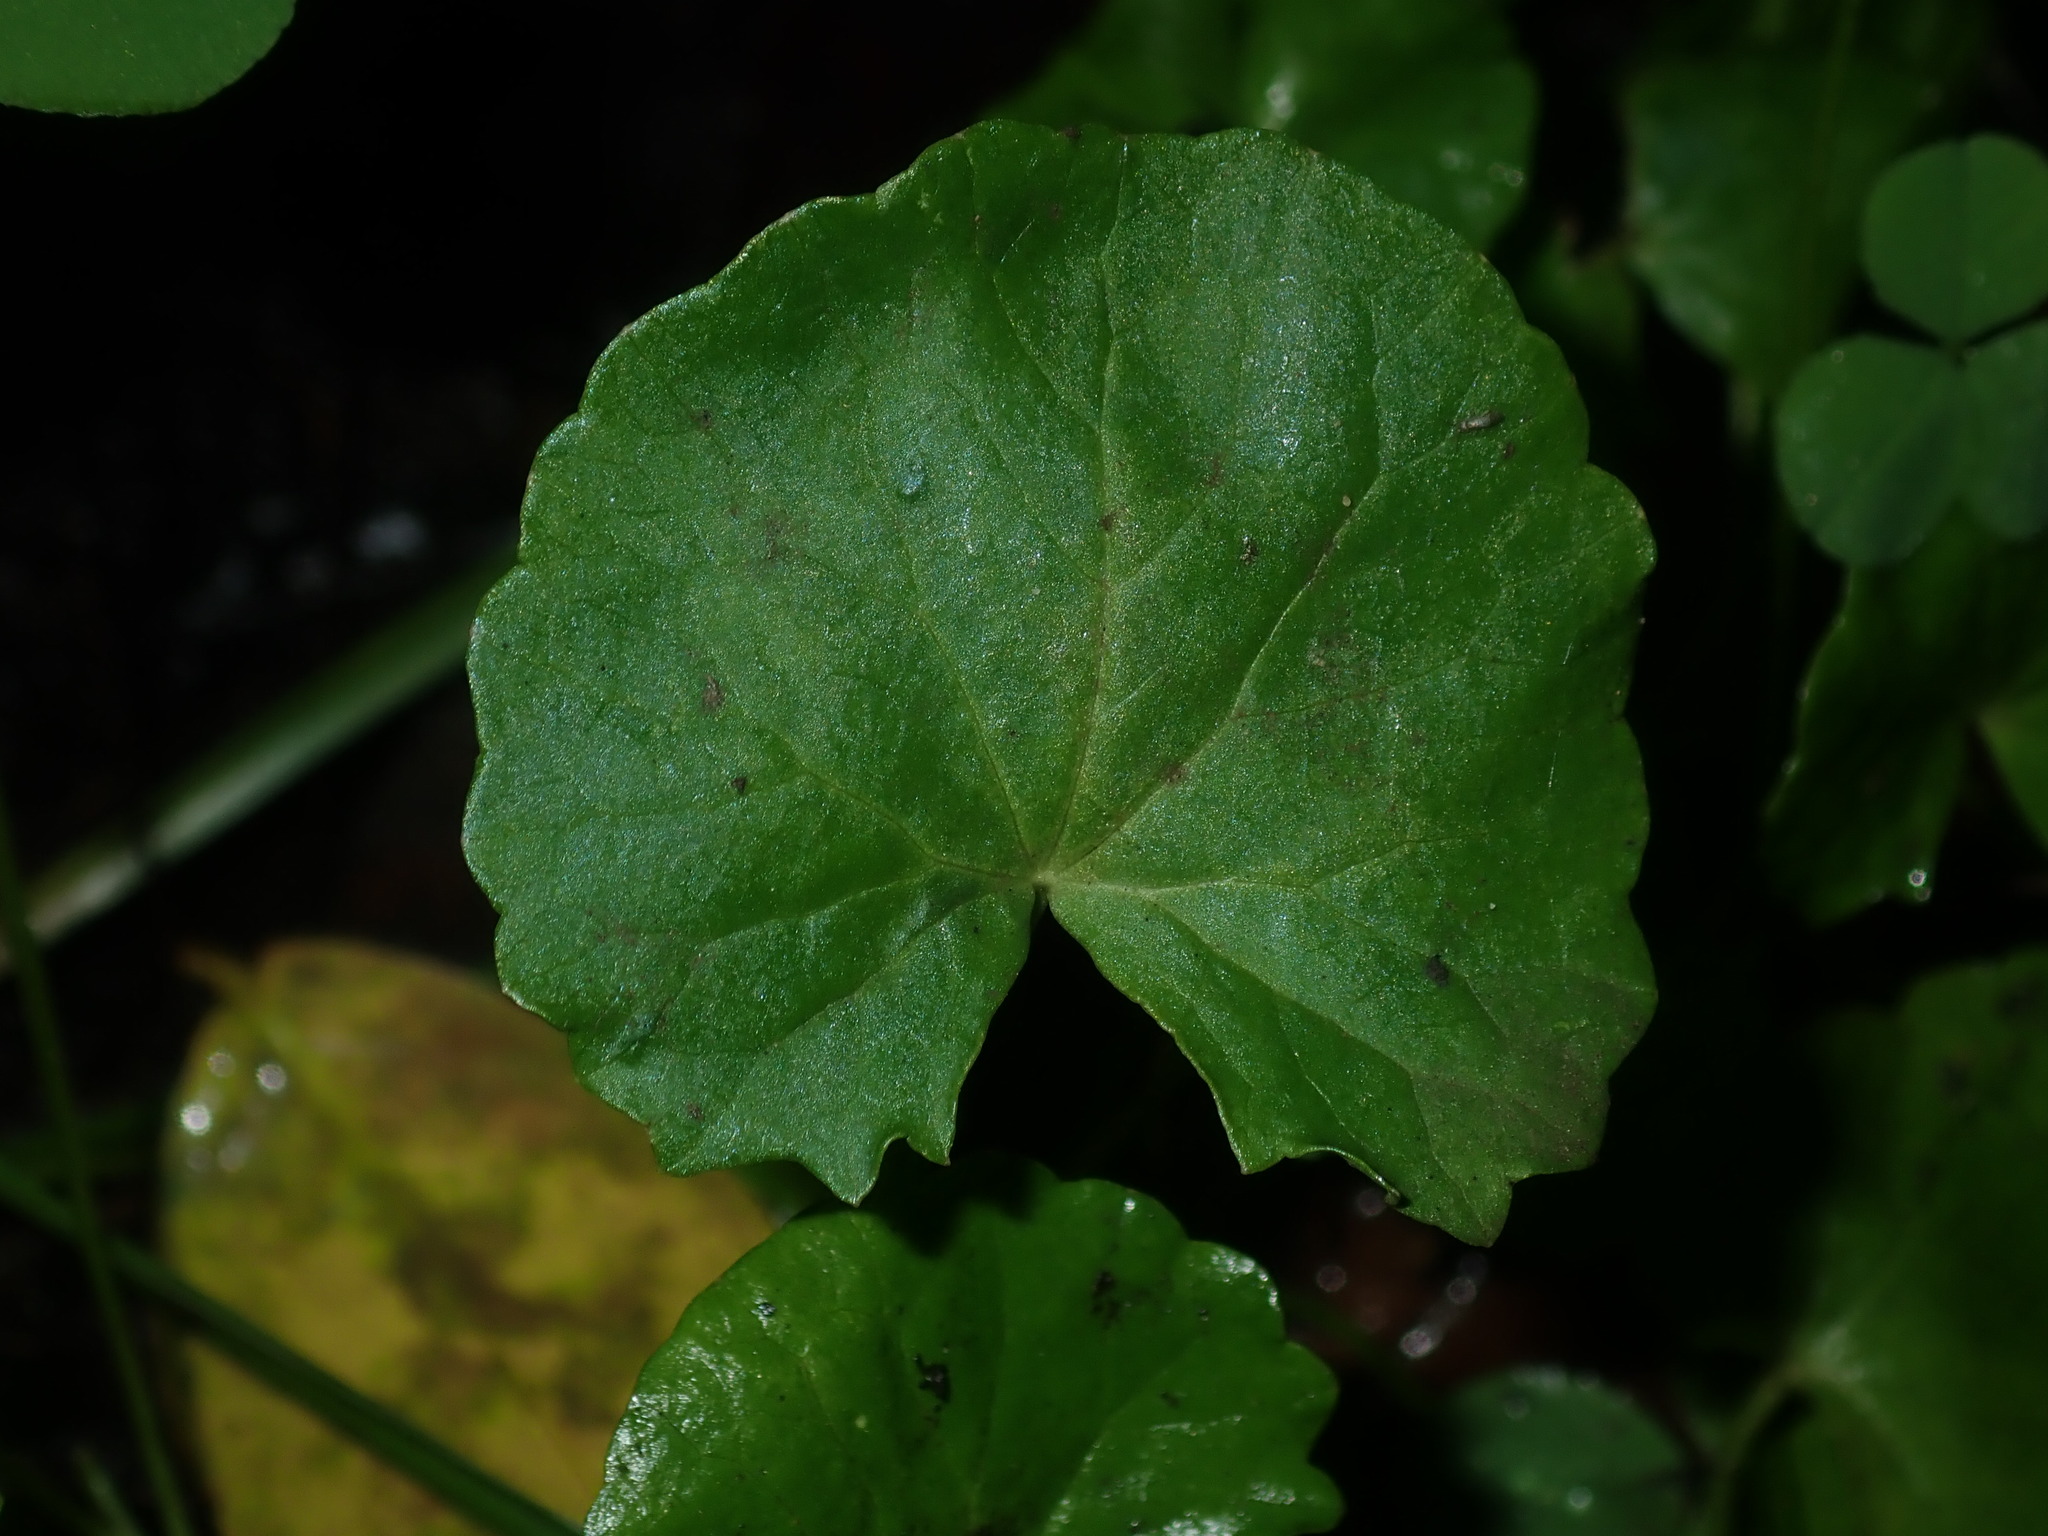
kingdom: Plantae
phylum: Tracheophyta
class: Magnoliopsida
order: Apiales
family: Apiaceae
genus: Centella
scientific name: Centella asiatica
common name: Spadeleaf
